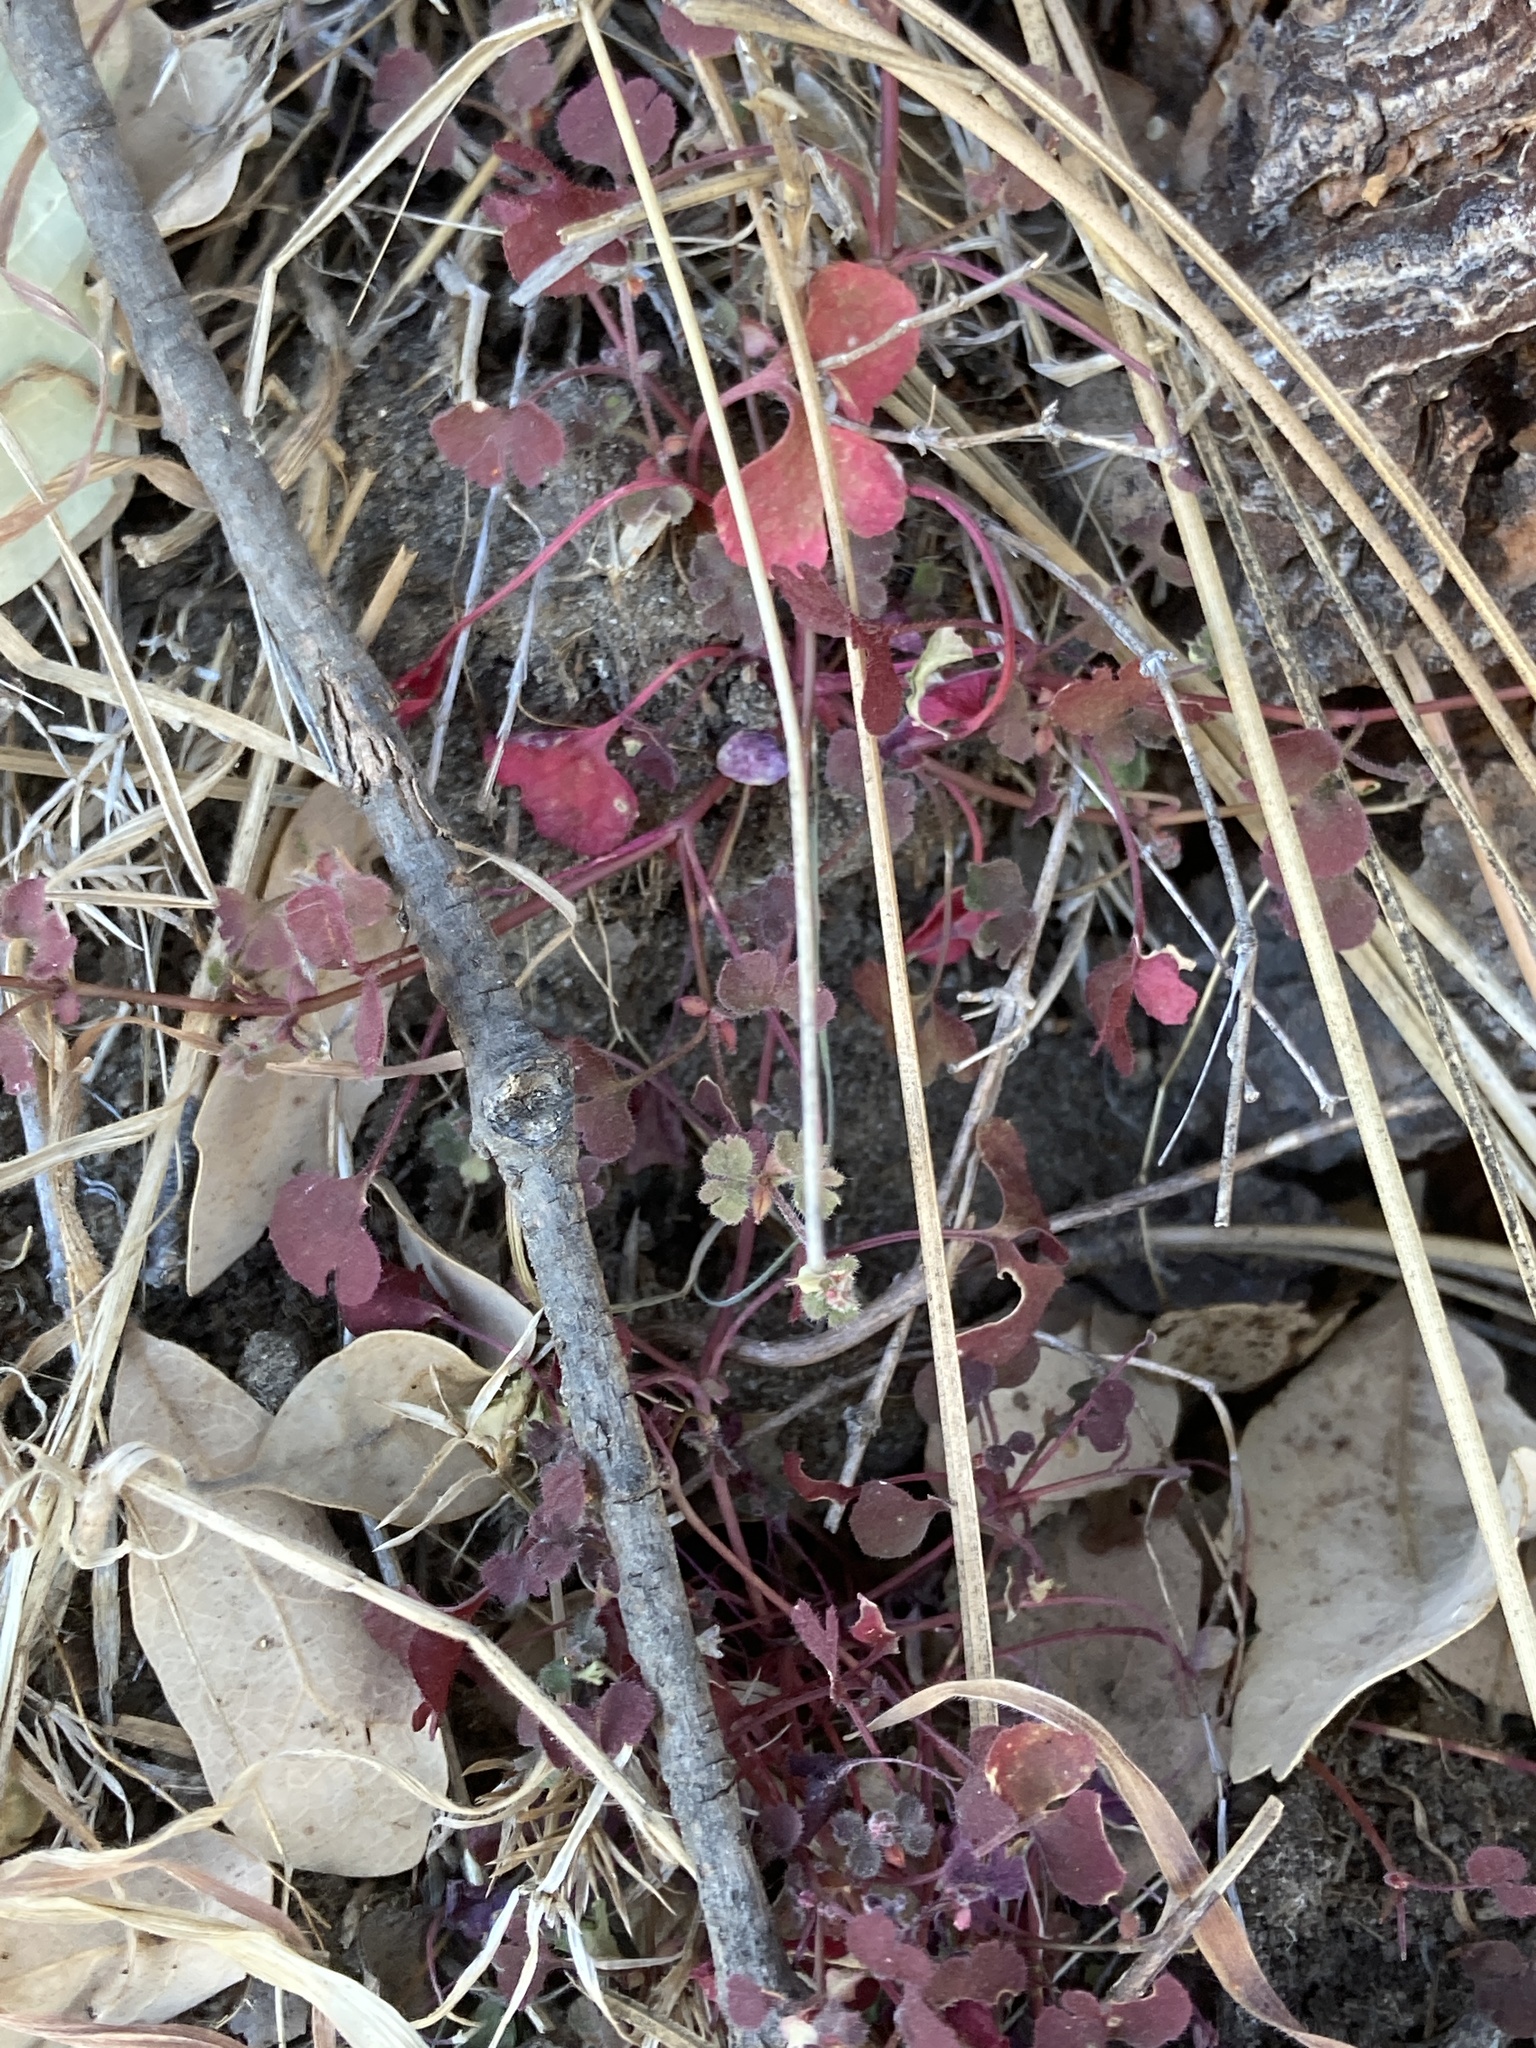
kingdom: Plantae
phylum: Tracheophyta
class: Magnoliopsida
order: Caryophyllales
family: Polygonaceae
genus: Pterostegia
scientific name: Pterostegia drymarioides
